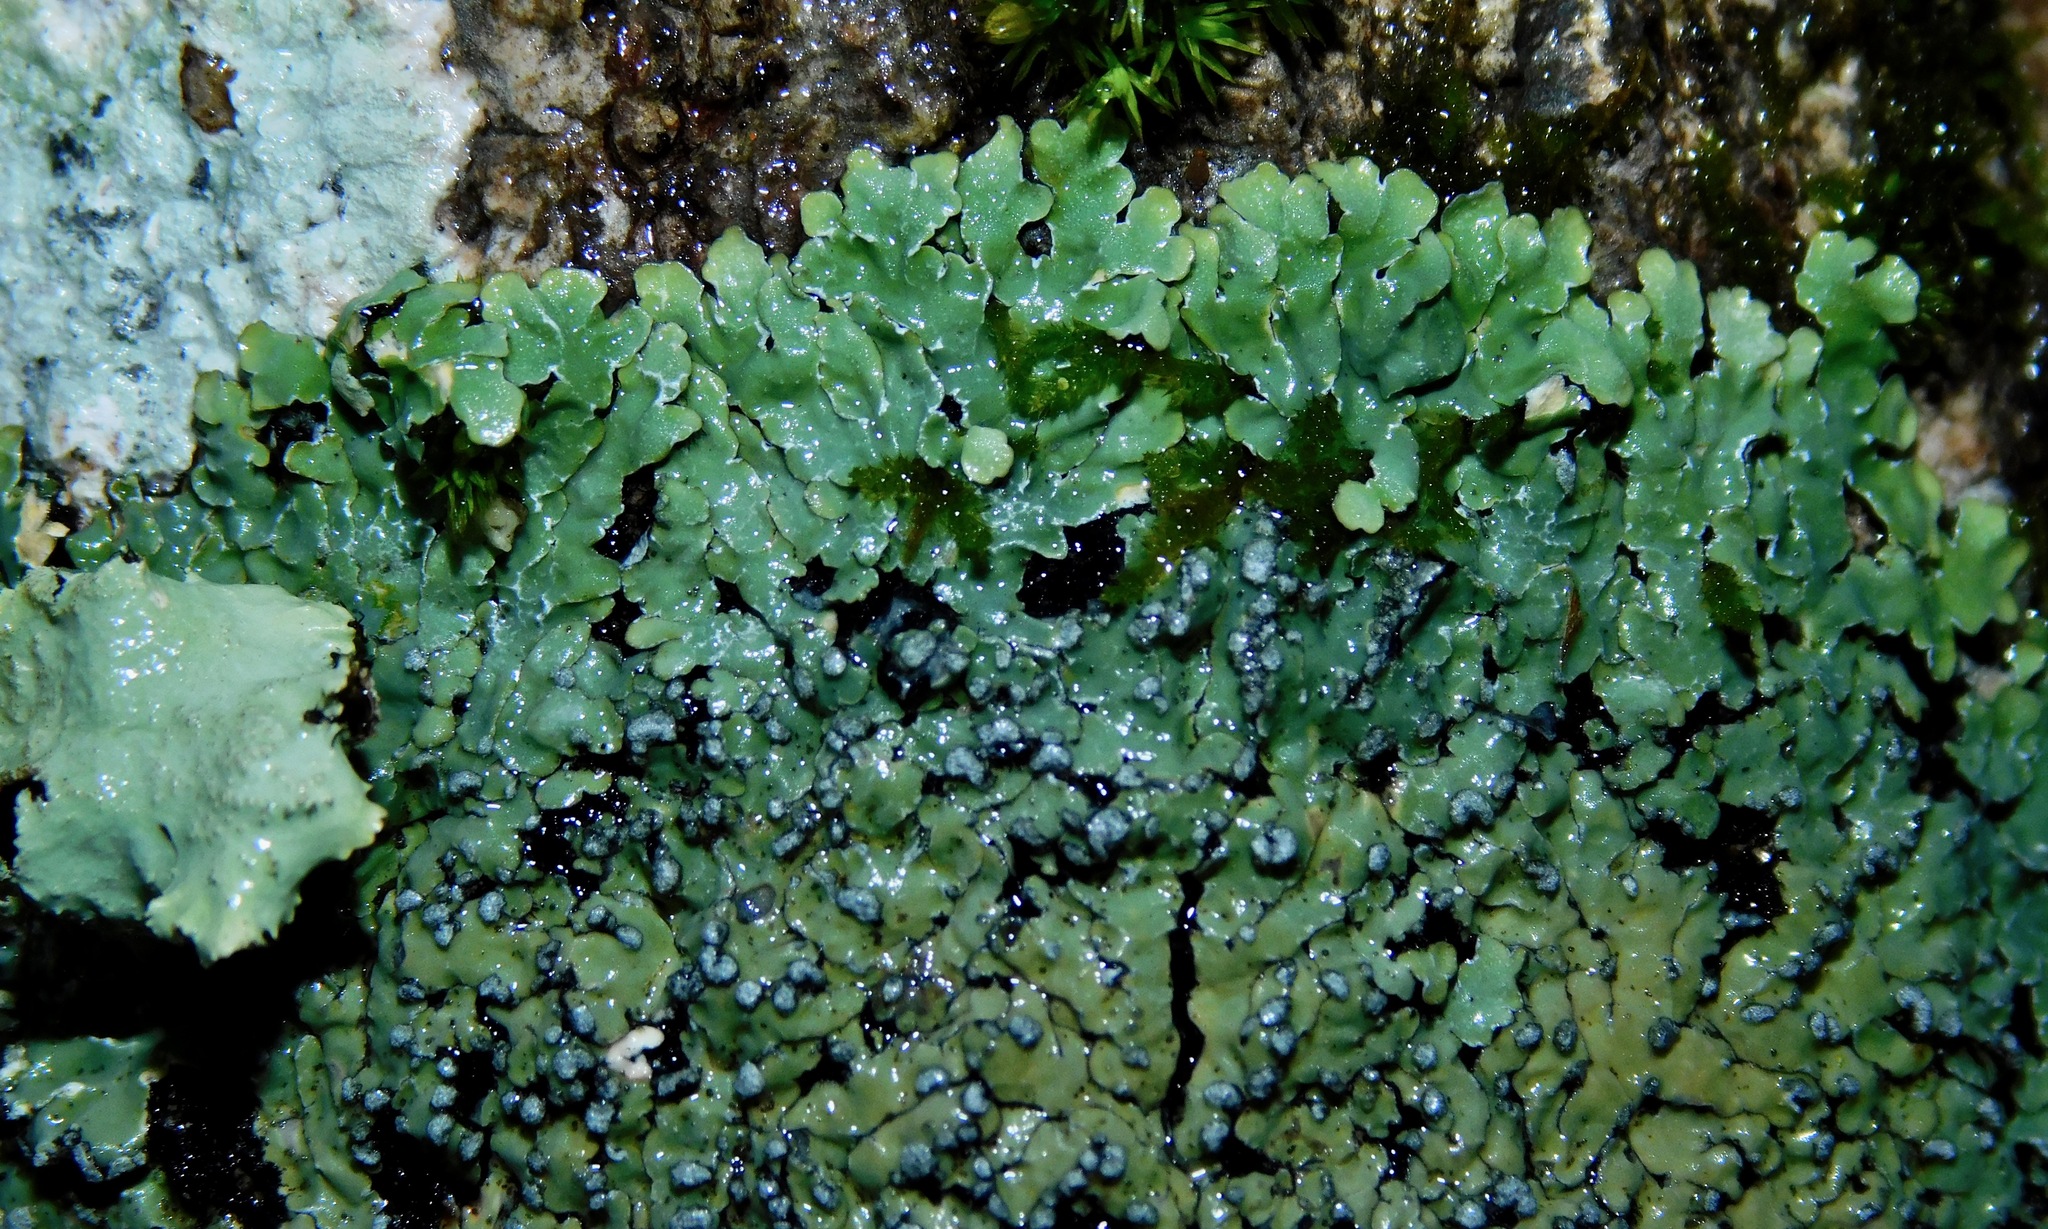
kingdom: Fungi
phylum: Ascomycota
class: Lecanoromycetes
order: Caliciales
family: Caliciaceae
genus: Pyxine
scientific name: Pyxine sorediata
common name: Mustard lichen
